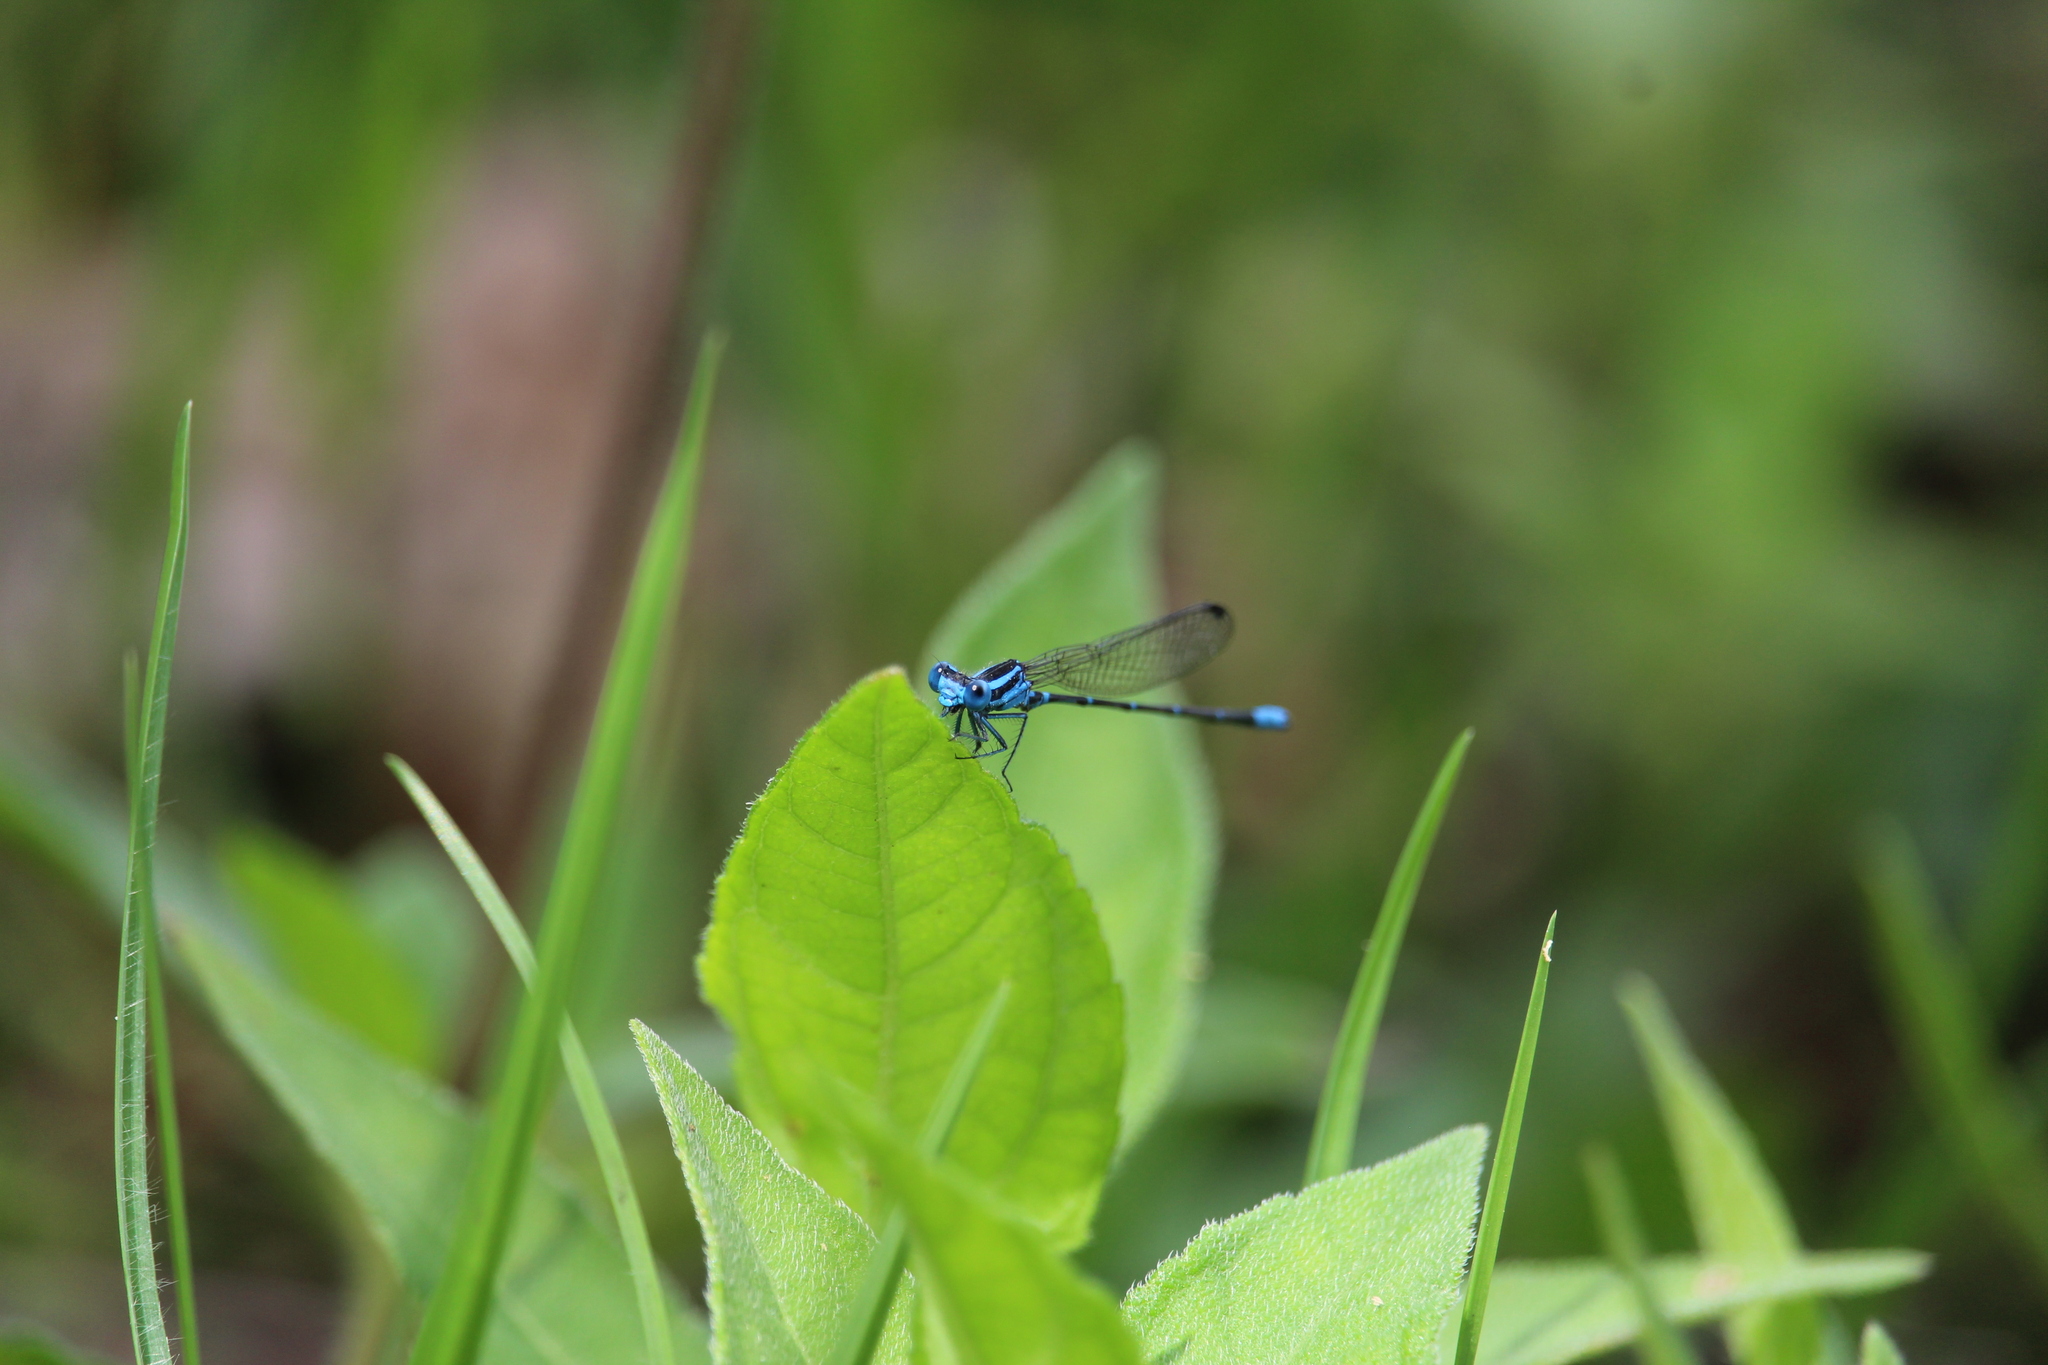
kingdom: Animalia
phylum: Arthropoda
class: Insecta
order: Odonata
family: Coenagrionidae
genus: Argia
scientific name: Argia gaumeri
